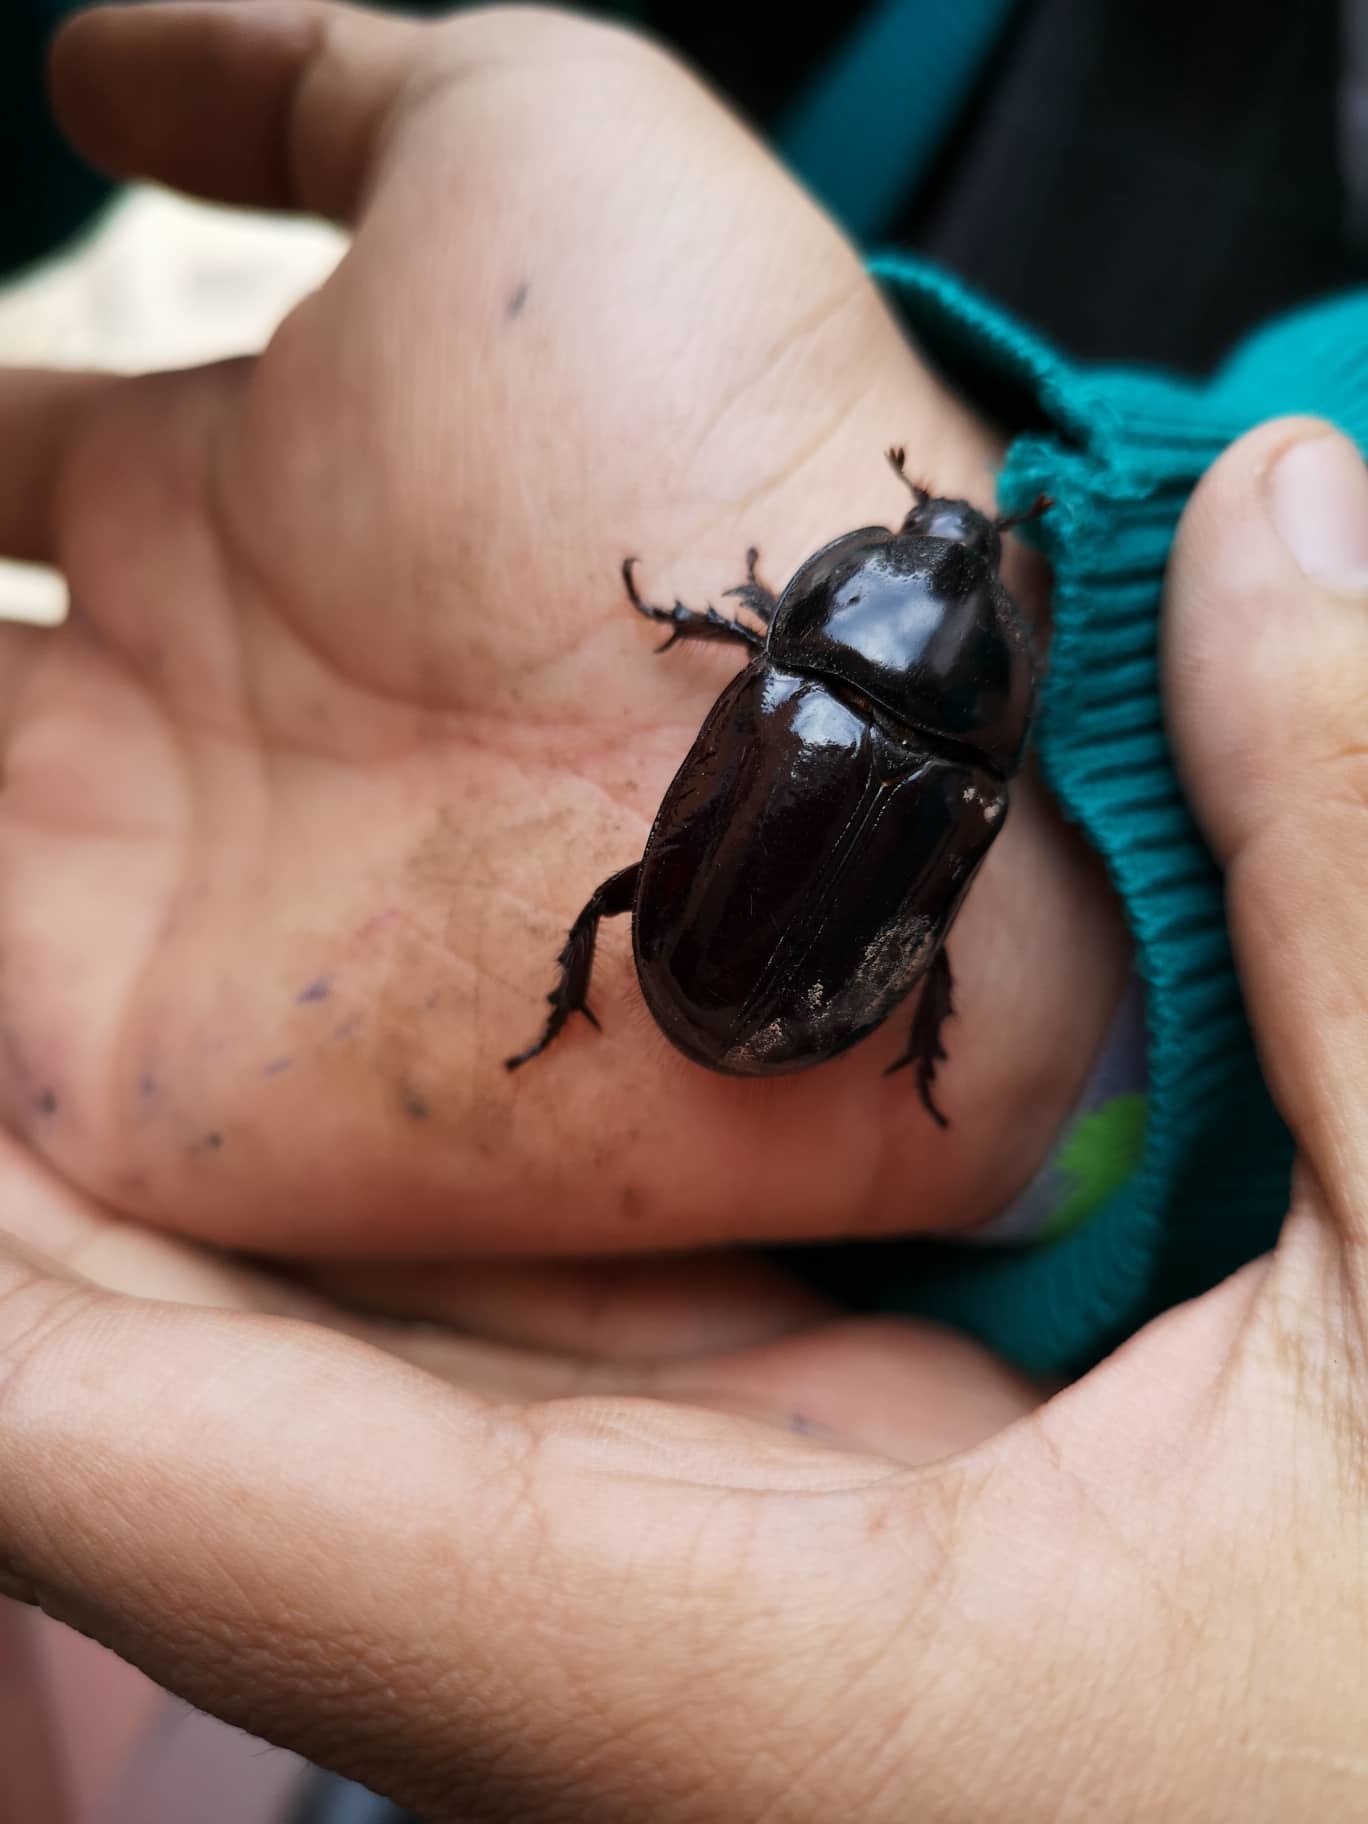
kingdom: Animalia
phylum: Arthropoda
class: Insecta
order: Coleoptera
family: Scarabaeidae
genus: Enema
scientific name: Enema pan
